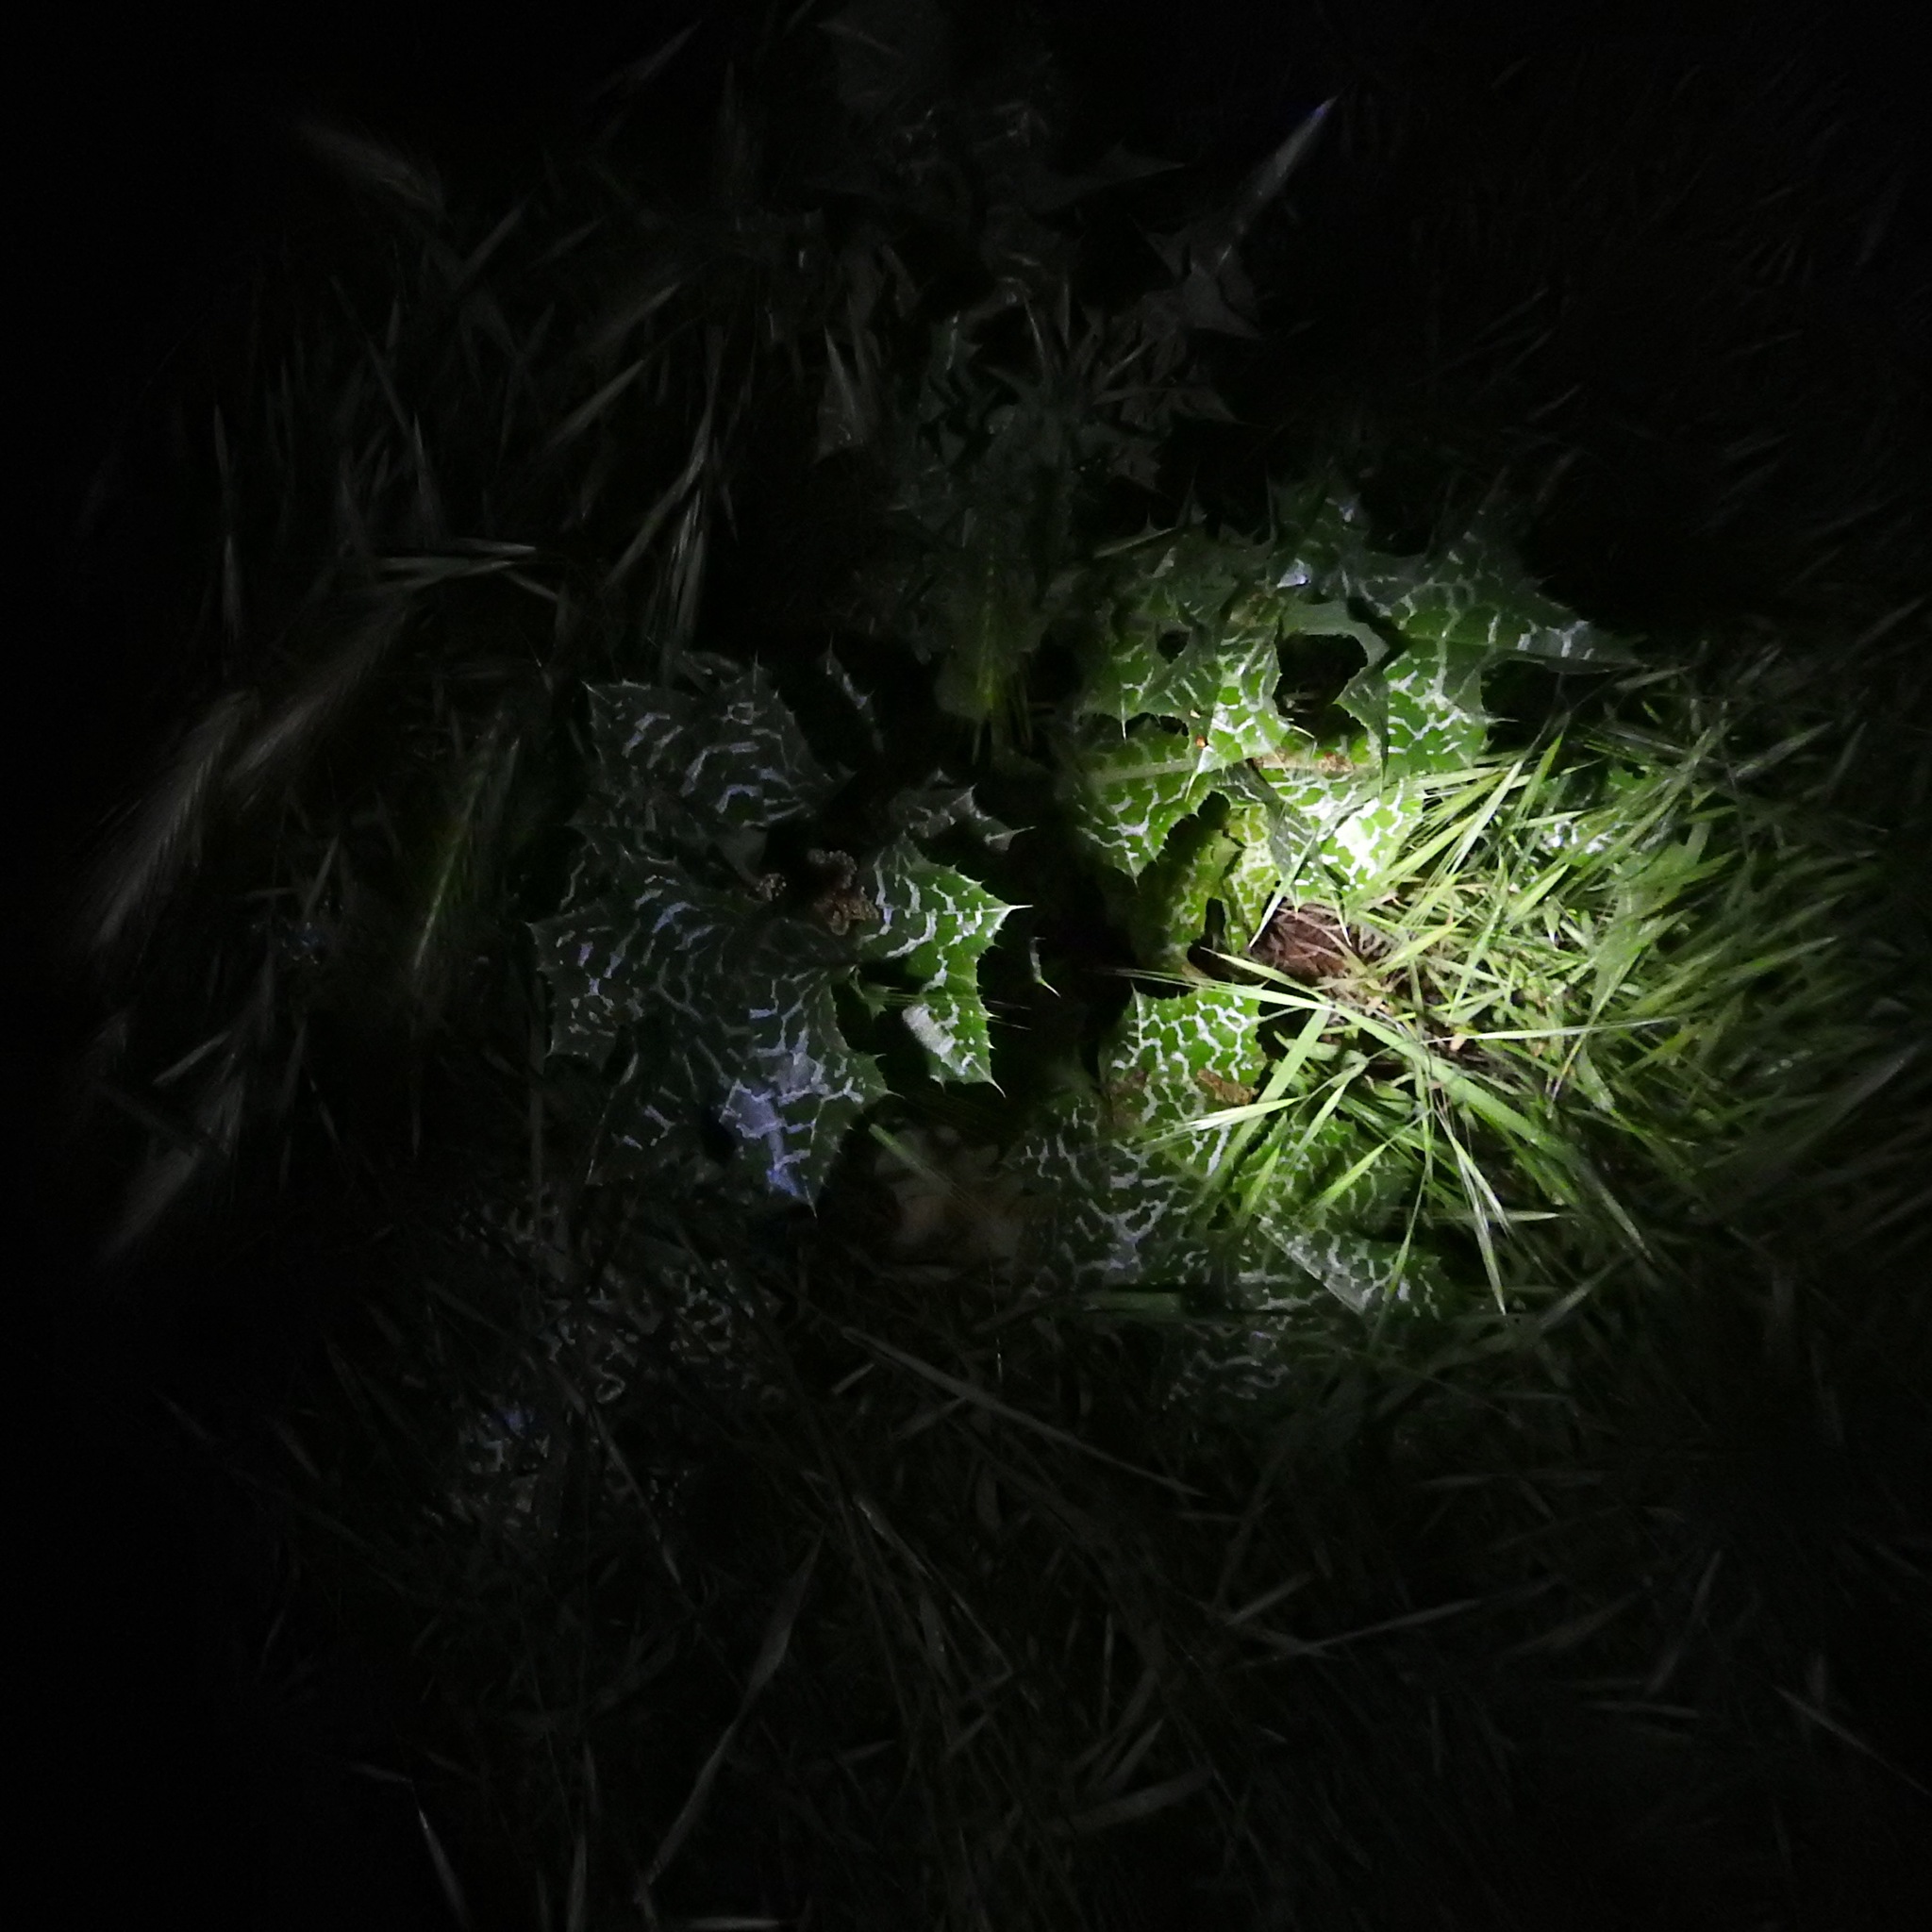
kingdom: Plantae
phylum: Tracheophyta
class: Magnoliopsida
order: Asterales
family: Asteraceae
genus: Silybum
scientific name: Silybum marianum
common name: Milk thistle
